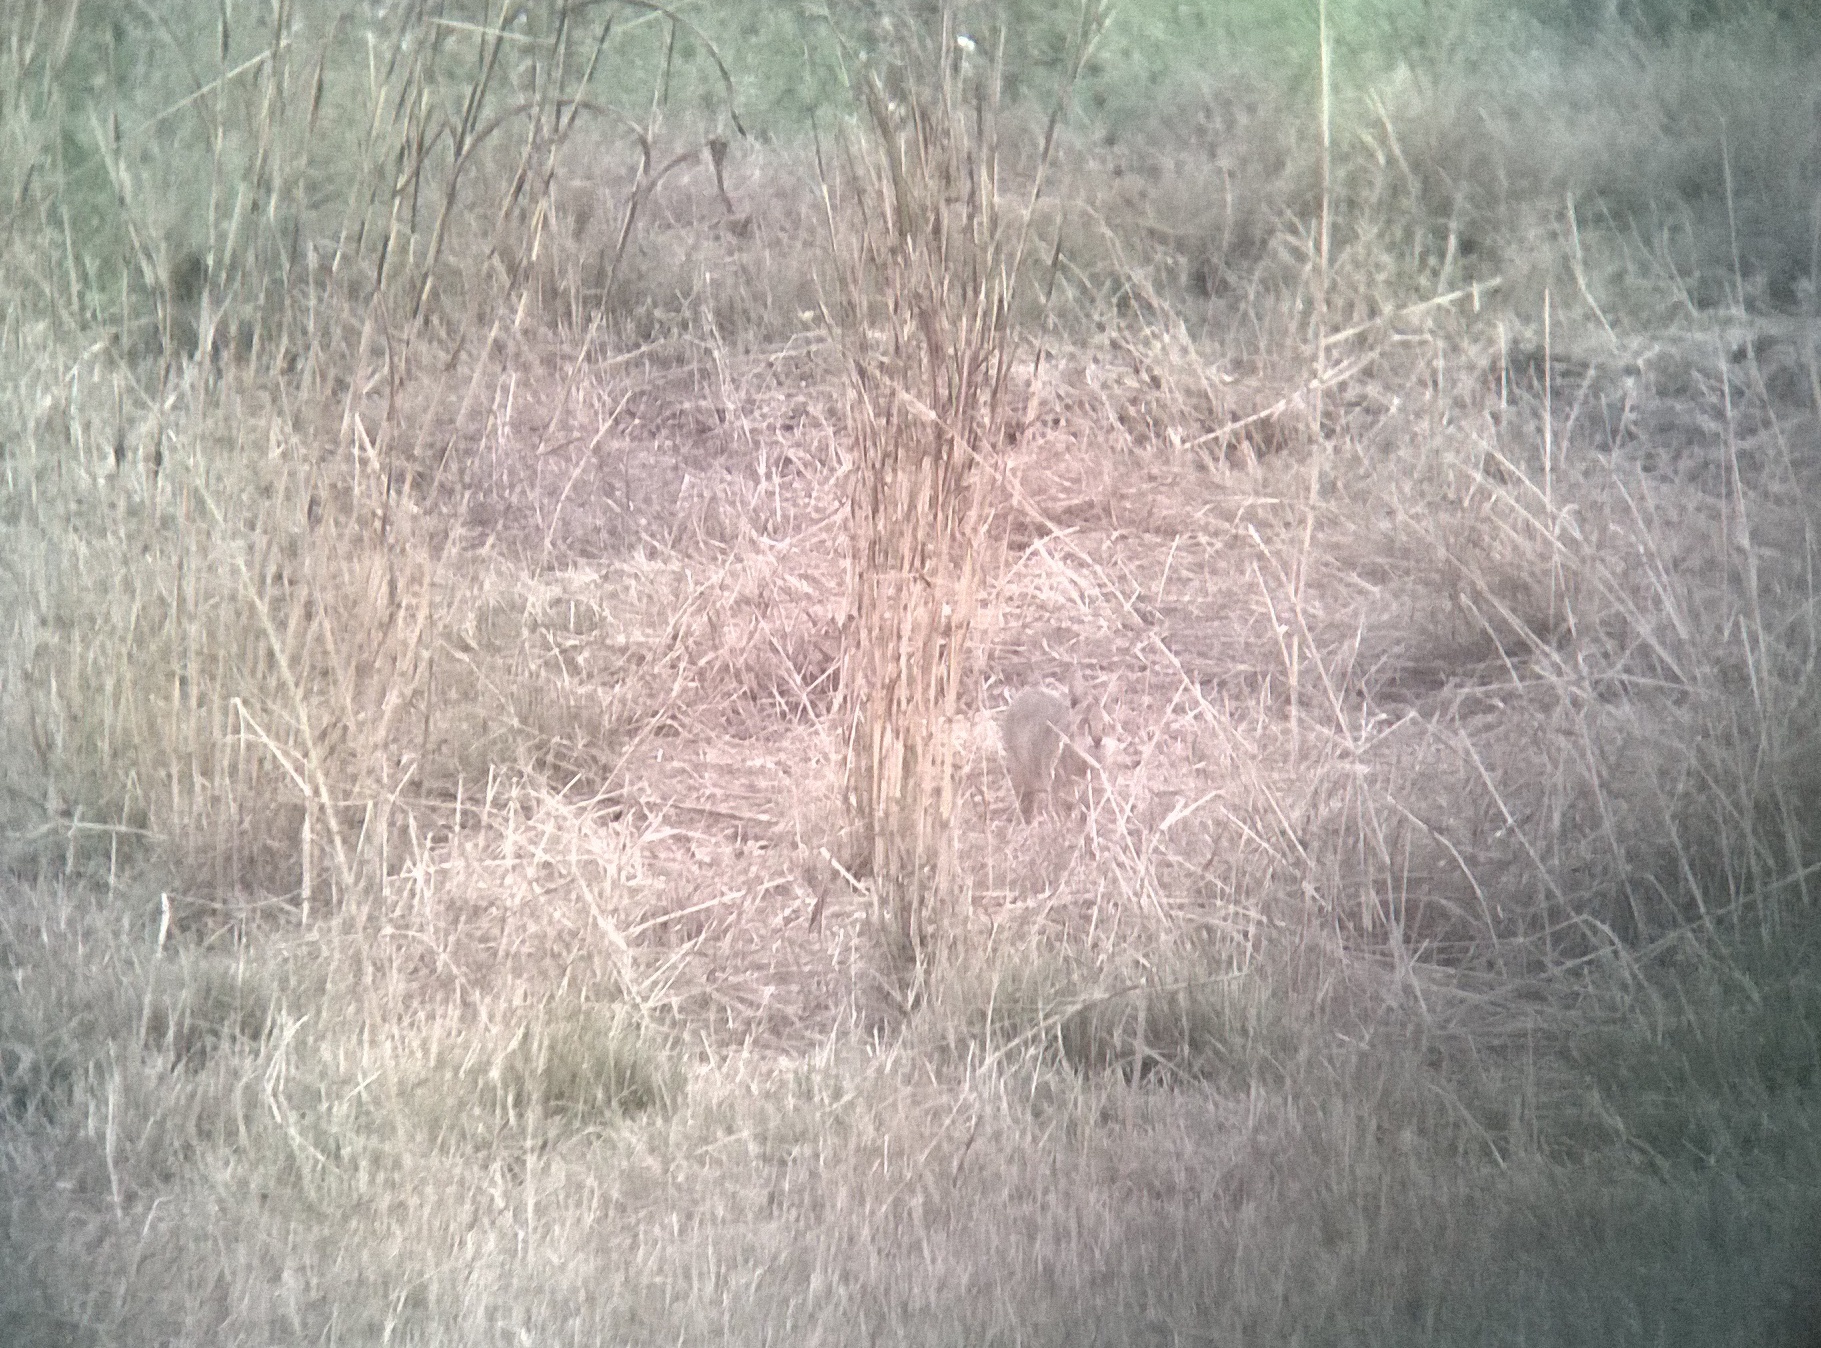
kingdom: Animalia
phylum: Chordata
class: Mammalia
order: Carnivora
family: Felidae
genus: Felis
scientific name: Felis chaus
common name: Jungle cat
